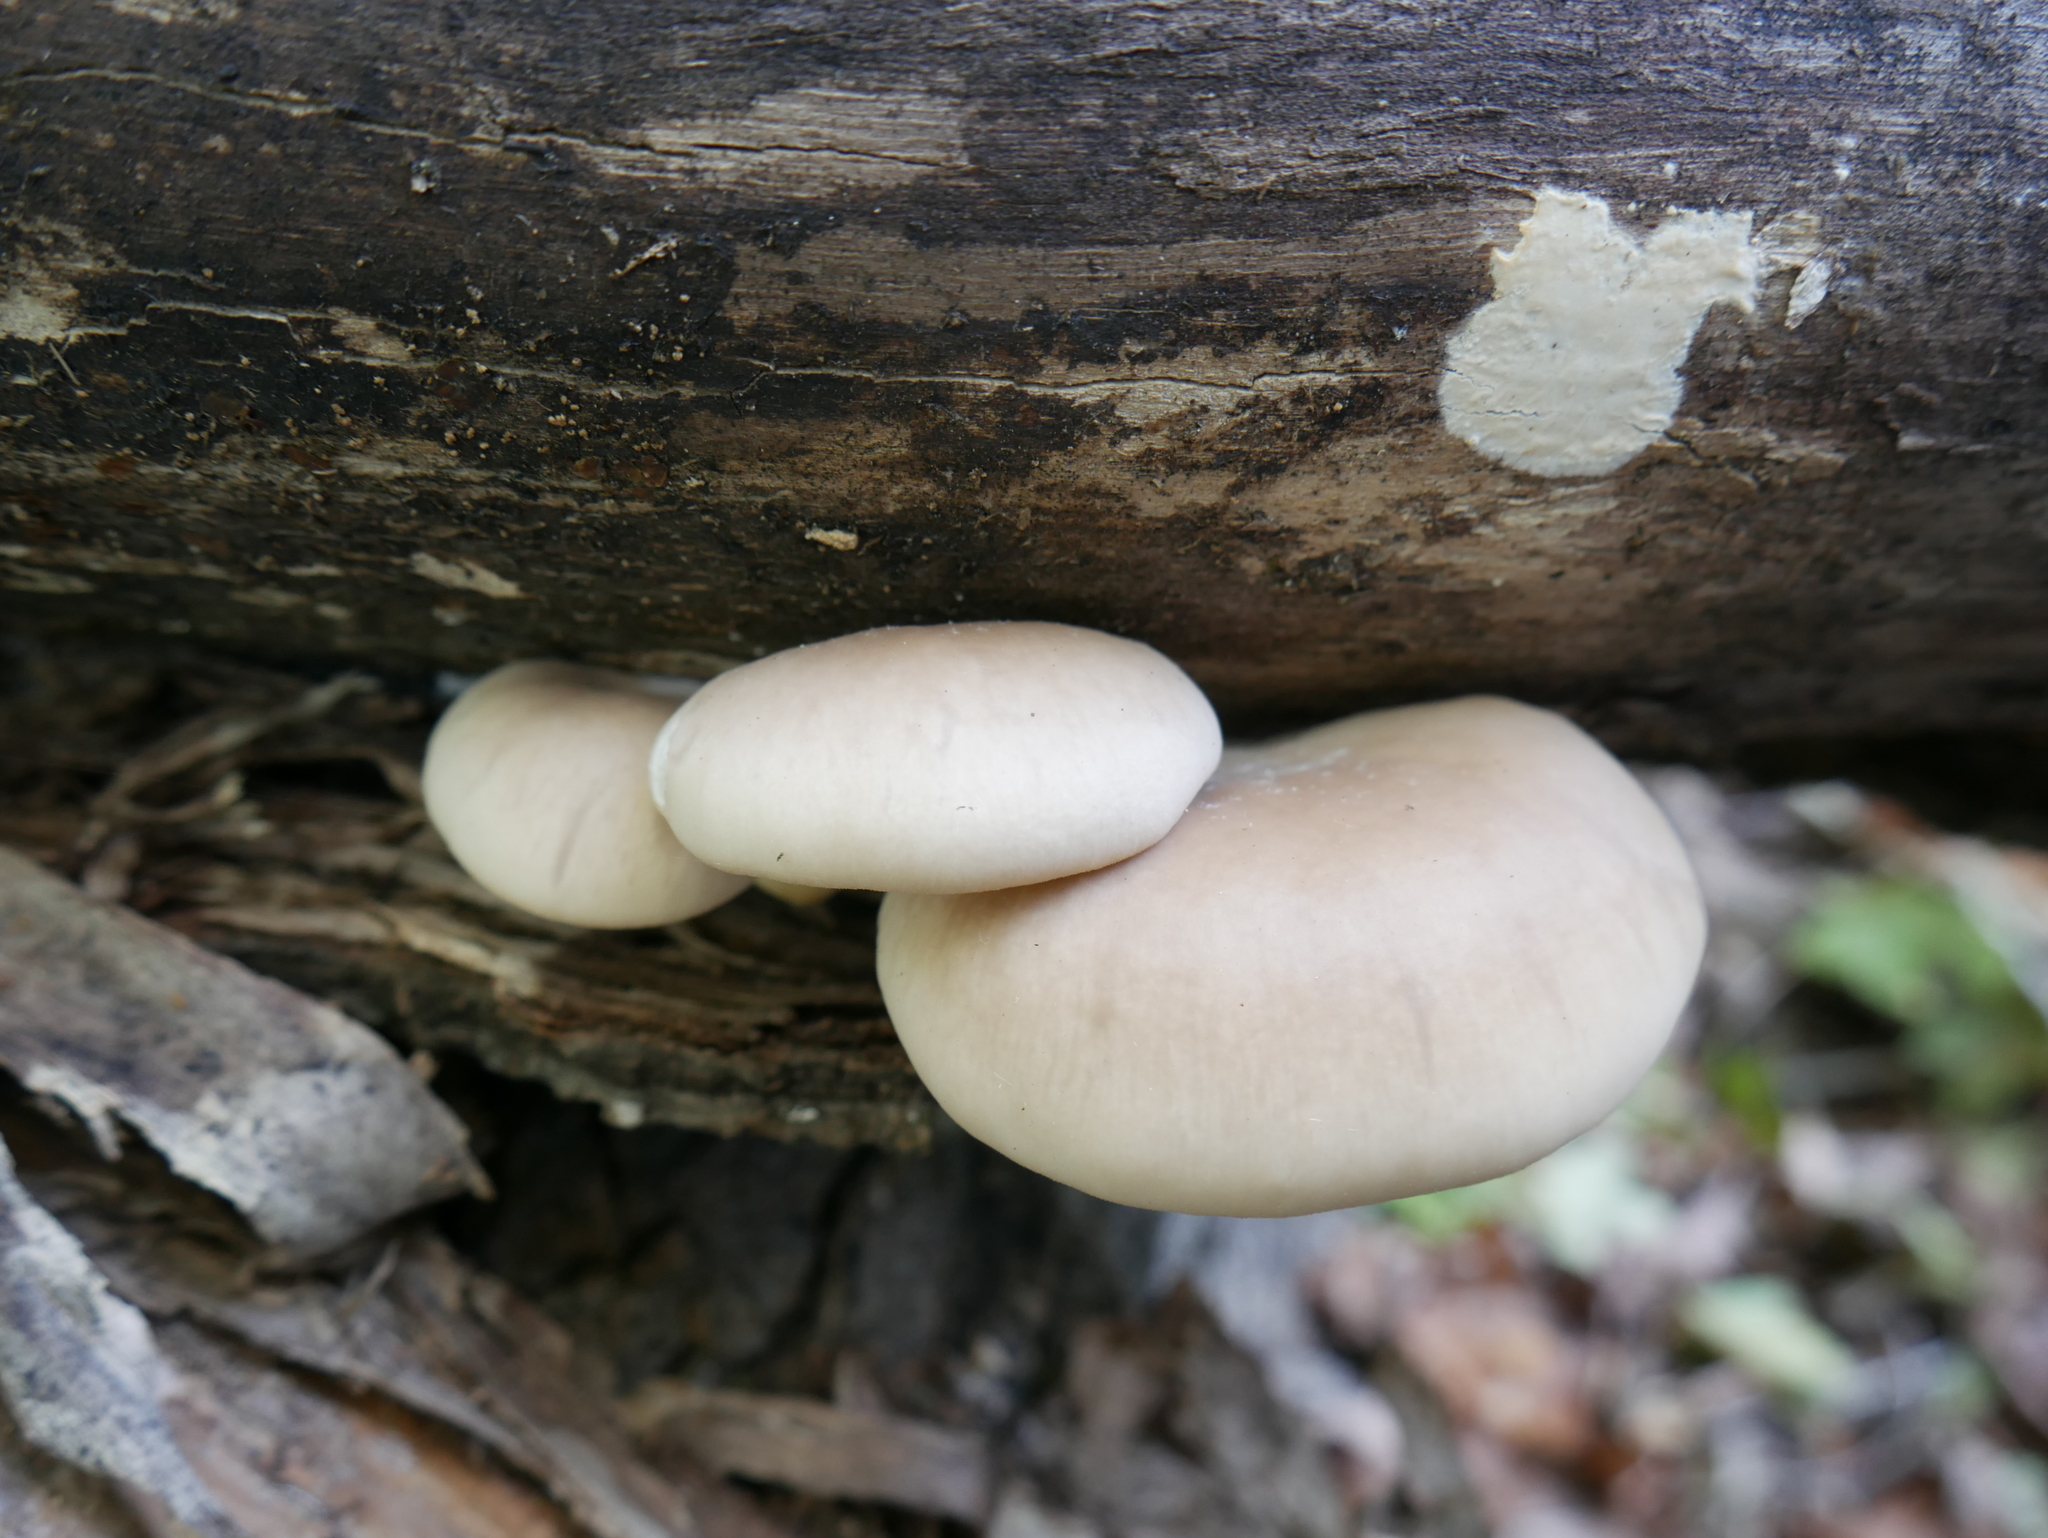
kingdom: Fungi
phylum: Basidiomycota
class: Agaricomycetes
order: Agaricales
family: Pleurotaceae
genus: Pleurotus
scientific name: Pleurotus ostreatus
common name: Oyster mushroom
